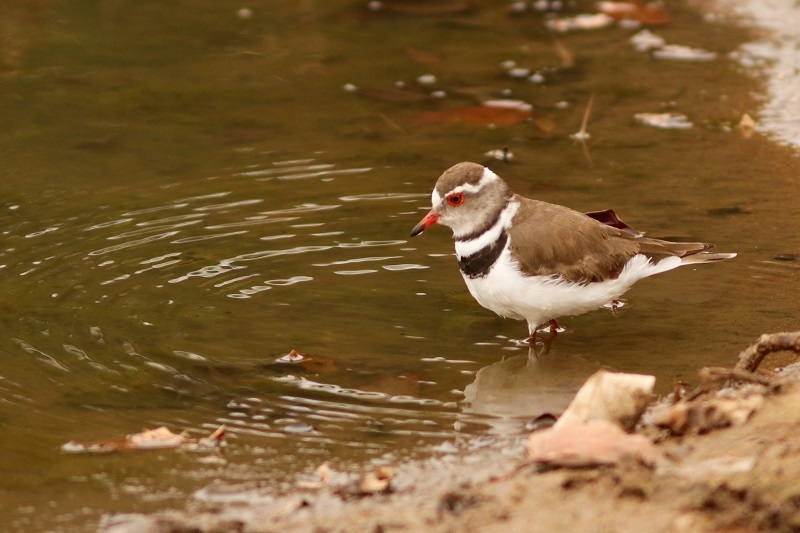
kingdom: Animalia
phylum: Chordata
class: Aves
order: Charadriiformes
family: Charadriidae
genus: Charadrius
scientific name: Charadrius tricollaris
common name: Three-banded plover
